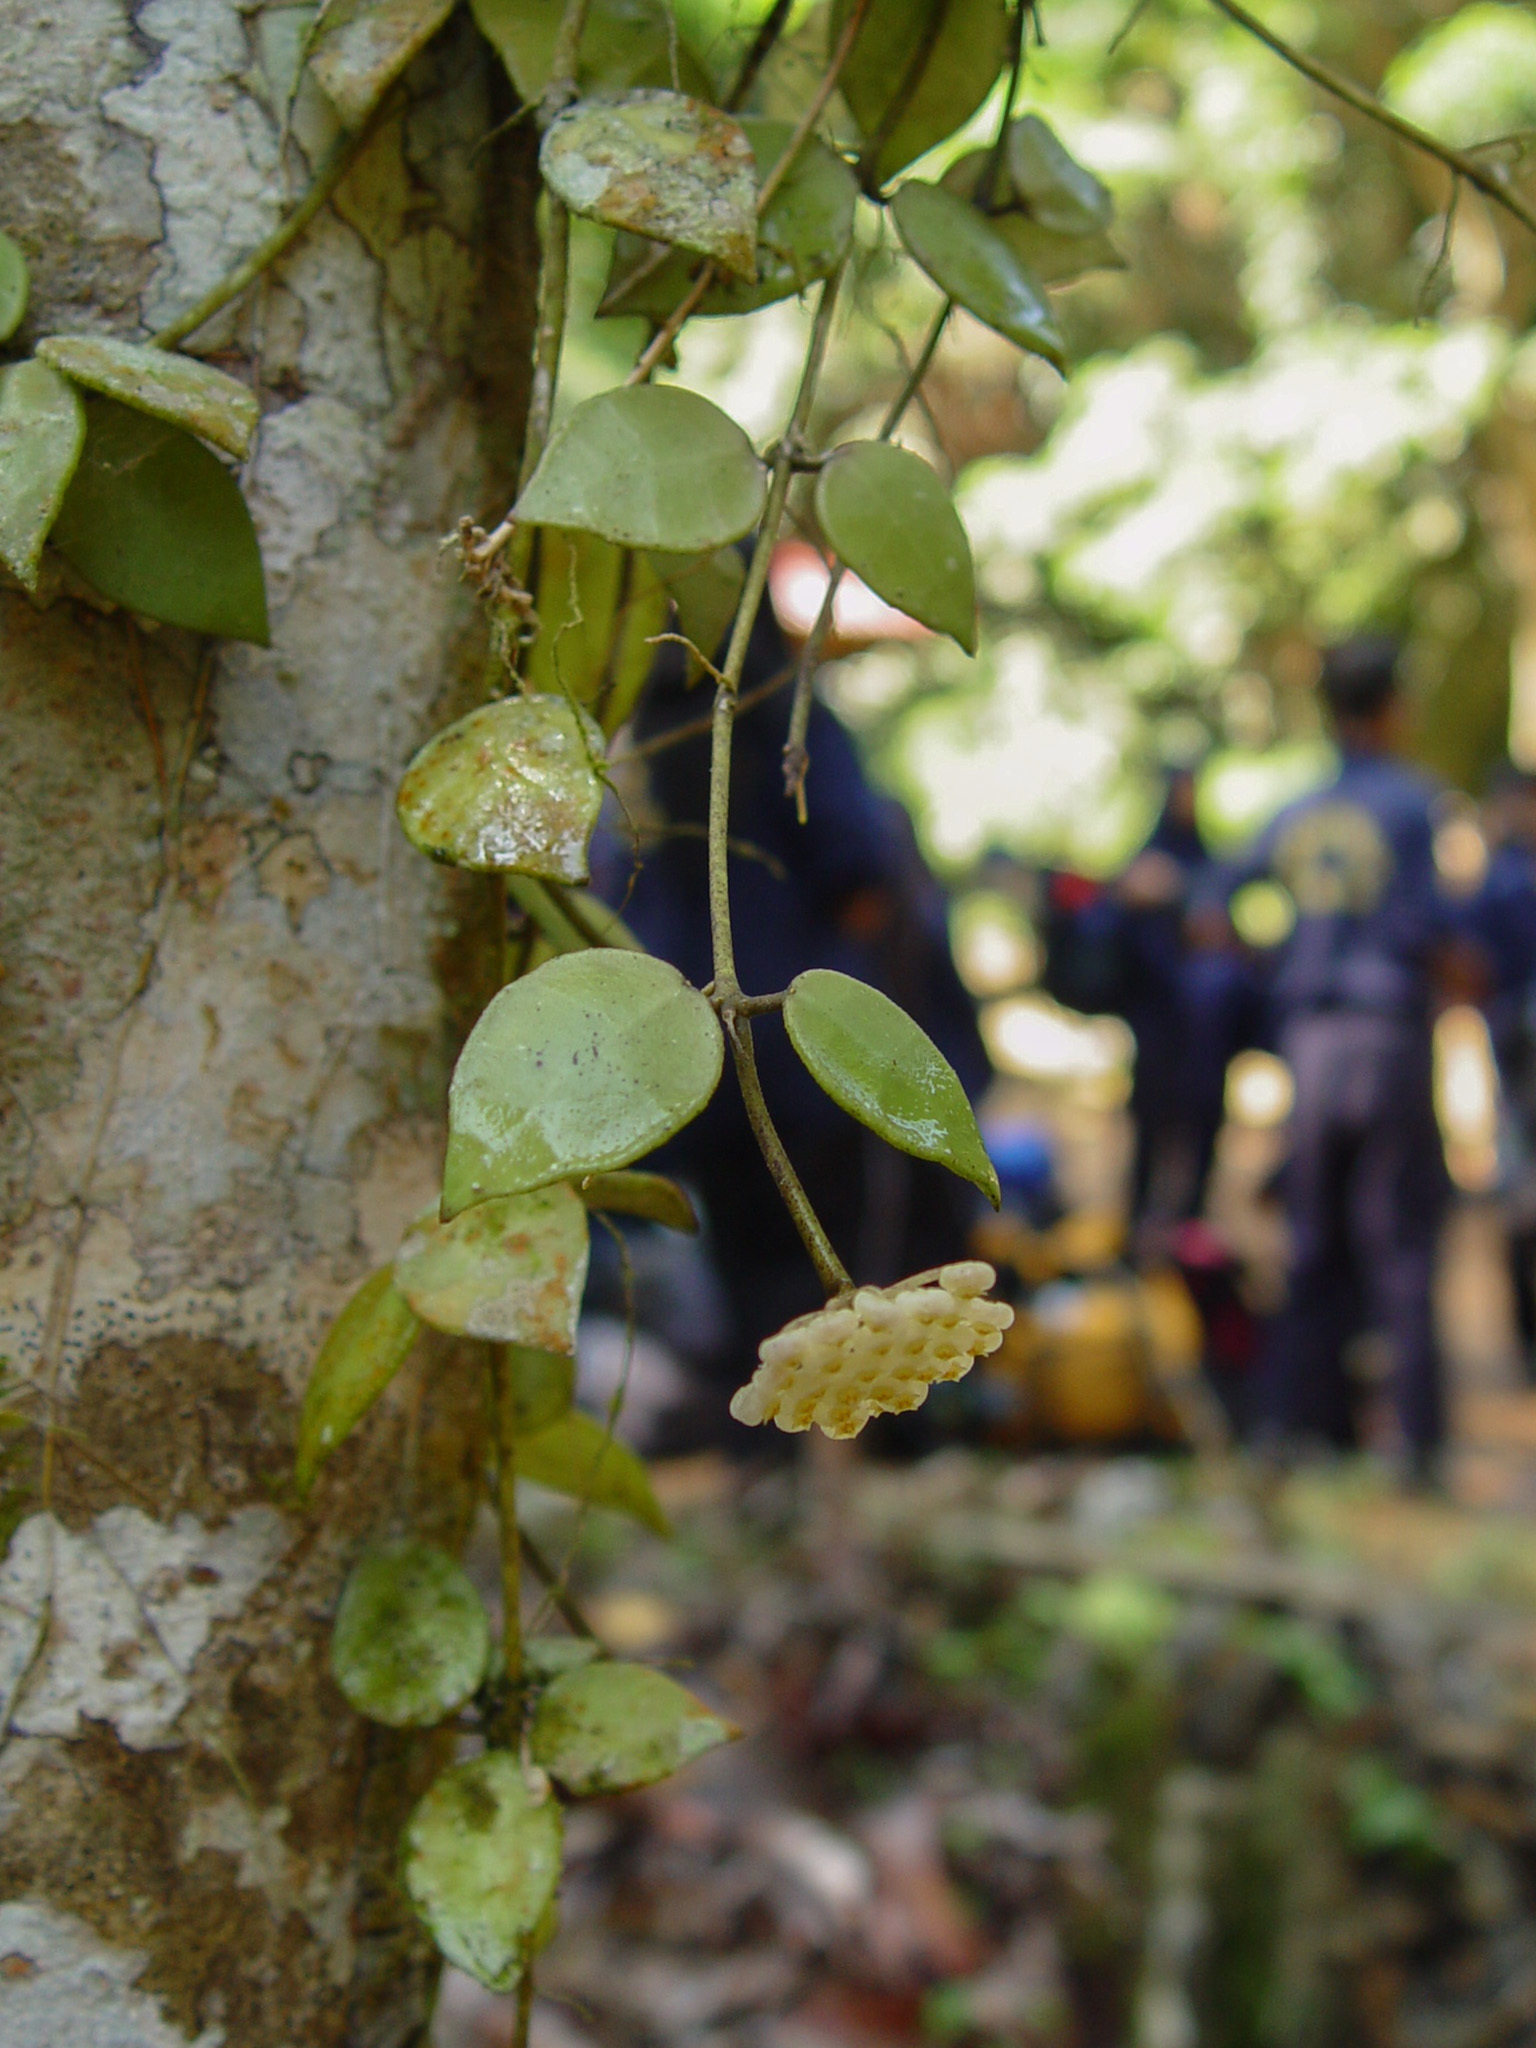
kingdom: Plantae
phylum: Tracheophyta
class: Magnoliopsida
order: Gentianales
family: Apocynaceae
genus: Hoya
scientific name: Hoya lacunosa
